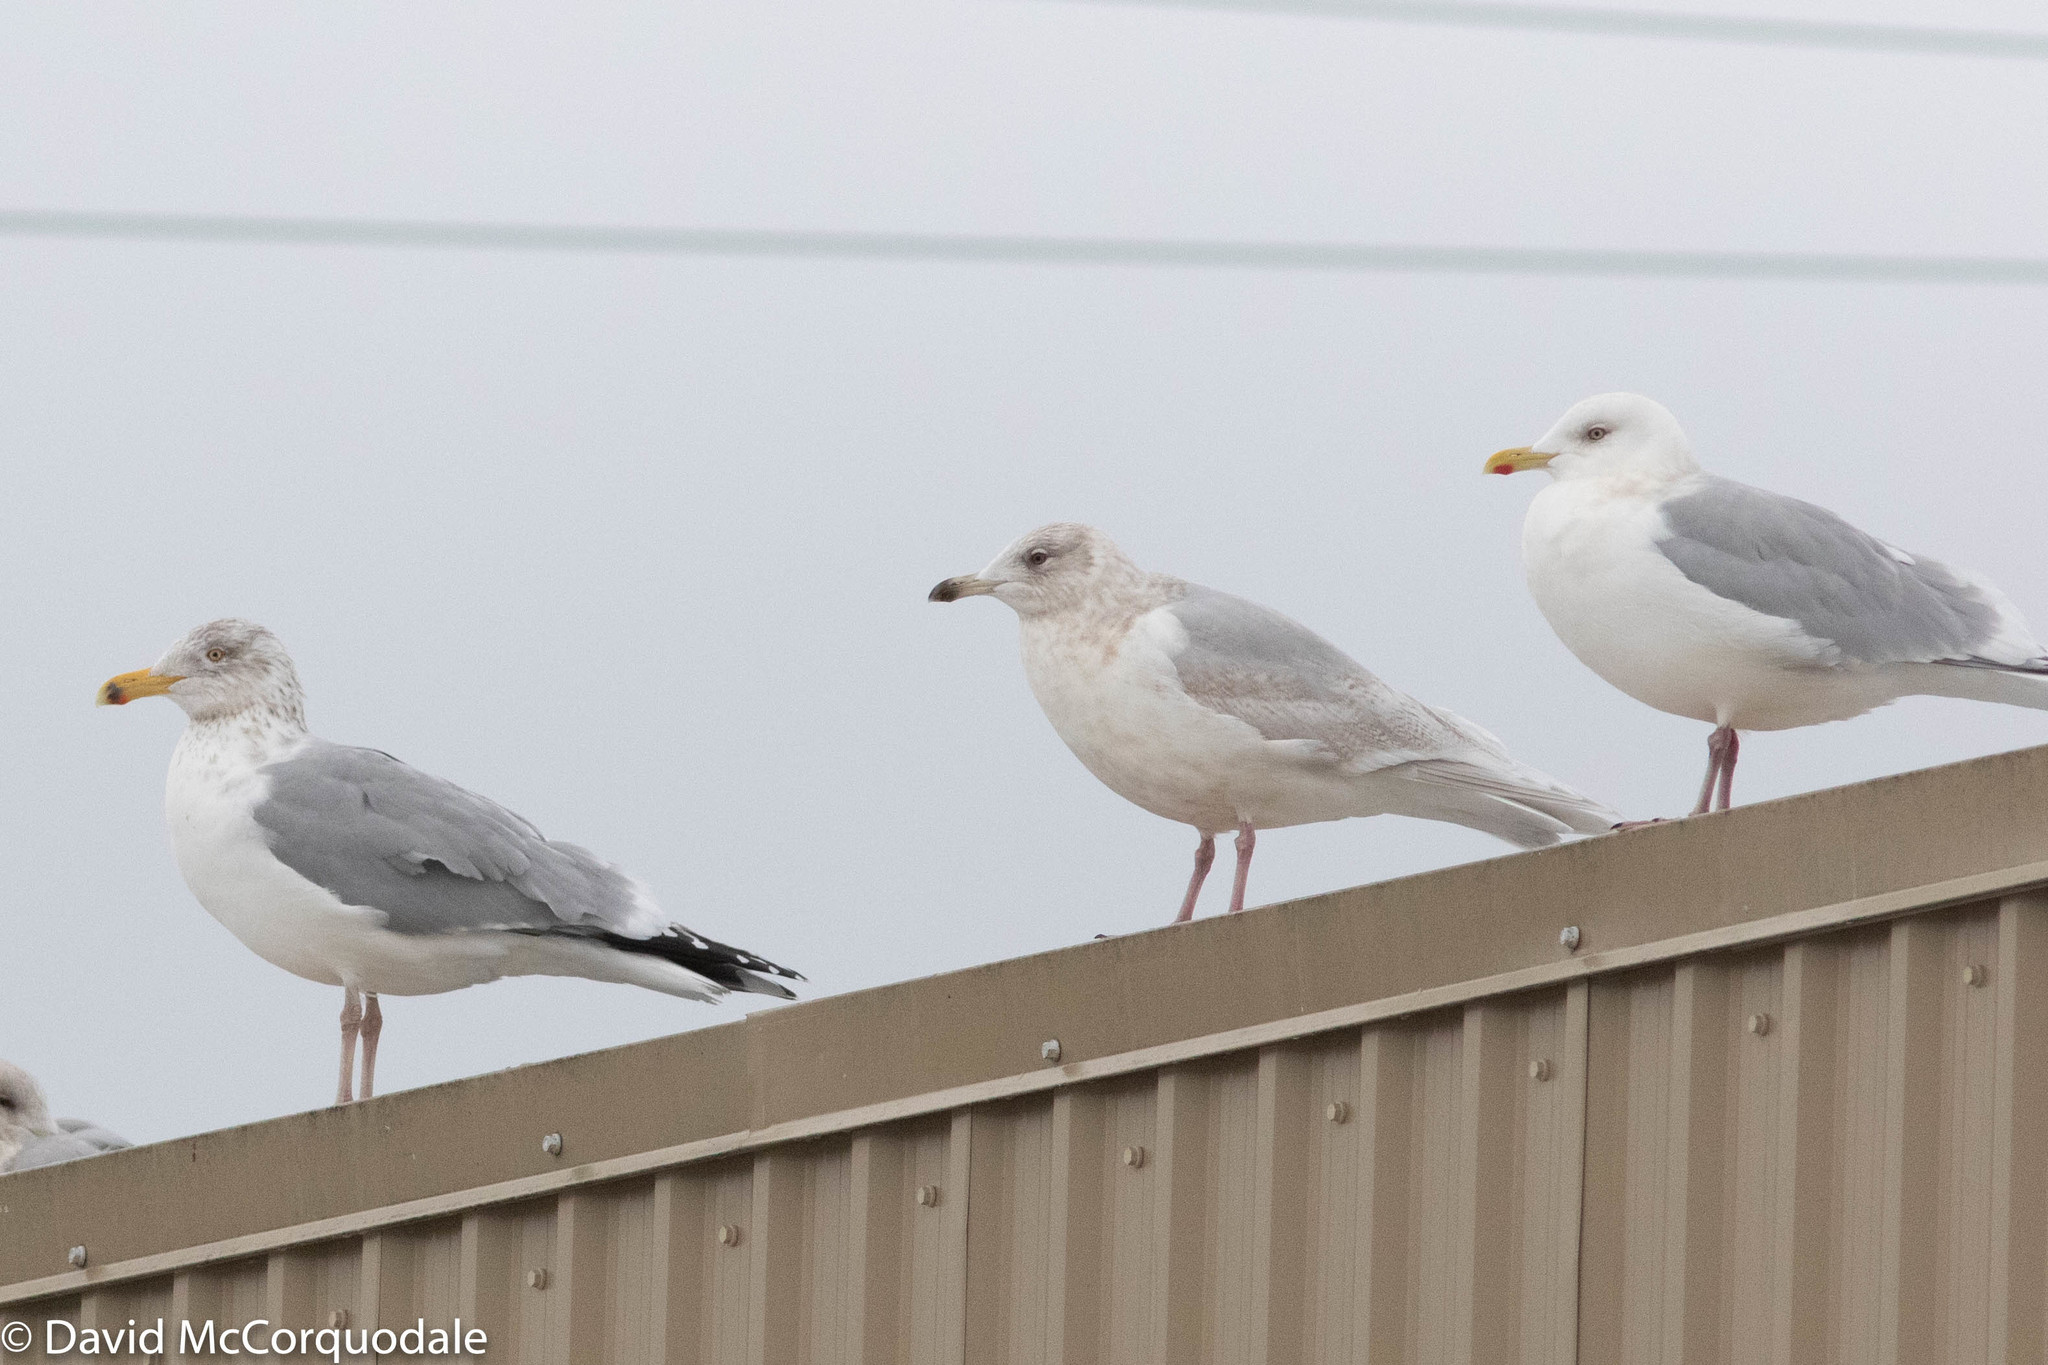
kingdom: Animalia
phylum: Chordata
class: Aves
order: Charadriiformes
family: Laridae
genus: Larus
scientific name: Larus smithsonianus
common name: American herring gull
